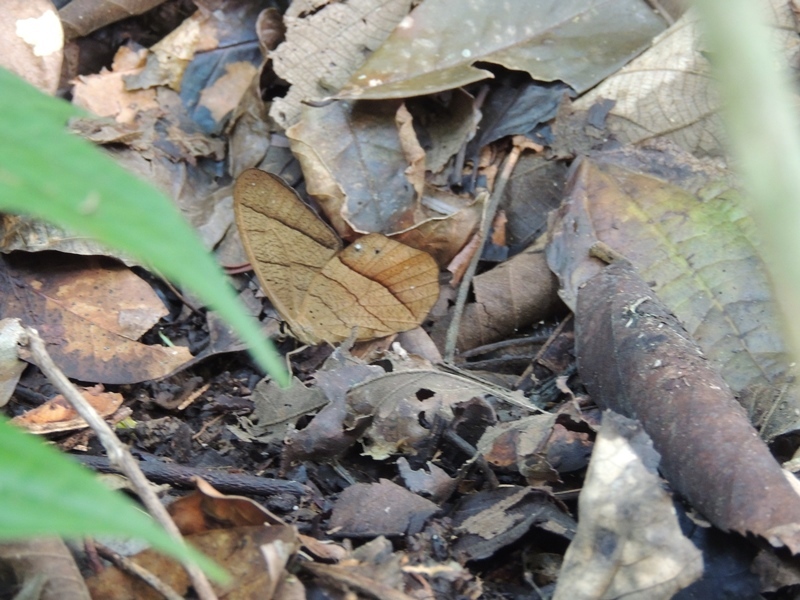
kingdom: Animalia
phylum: Arthropoda
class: Insecta
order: Lepidoptera
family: Nymphalidae
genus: Pierella
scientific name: Pierella luna
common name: Moon satyr
